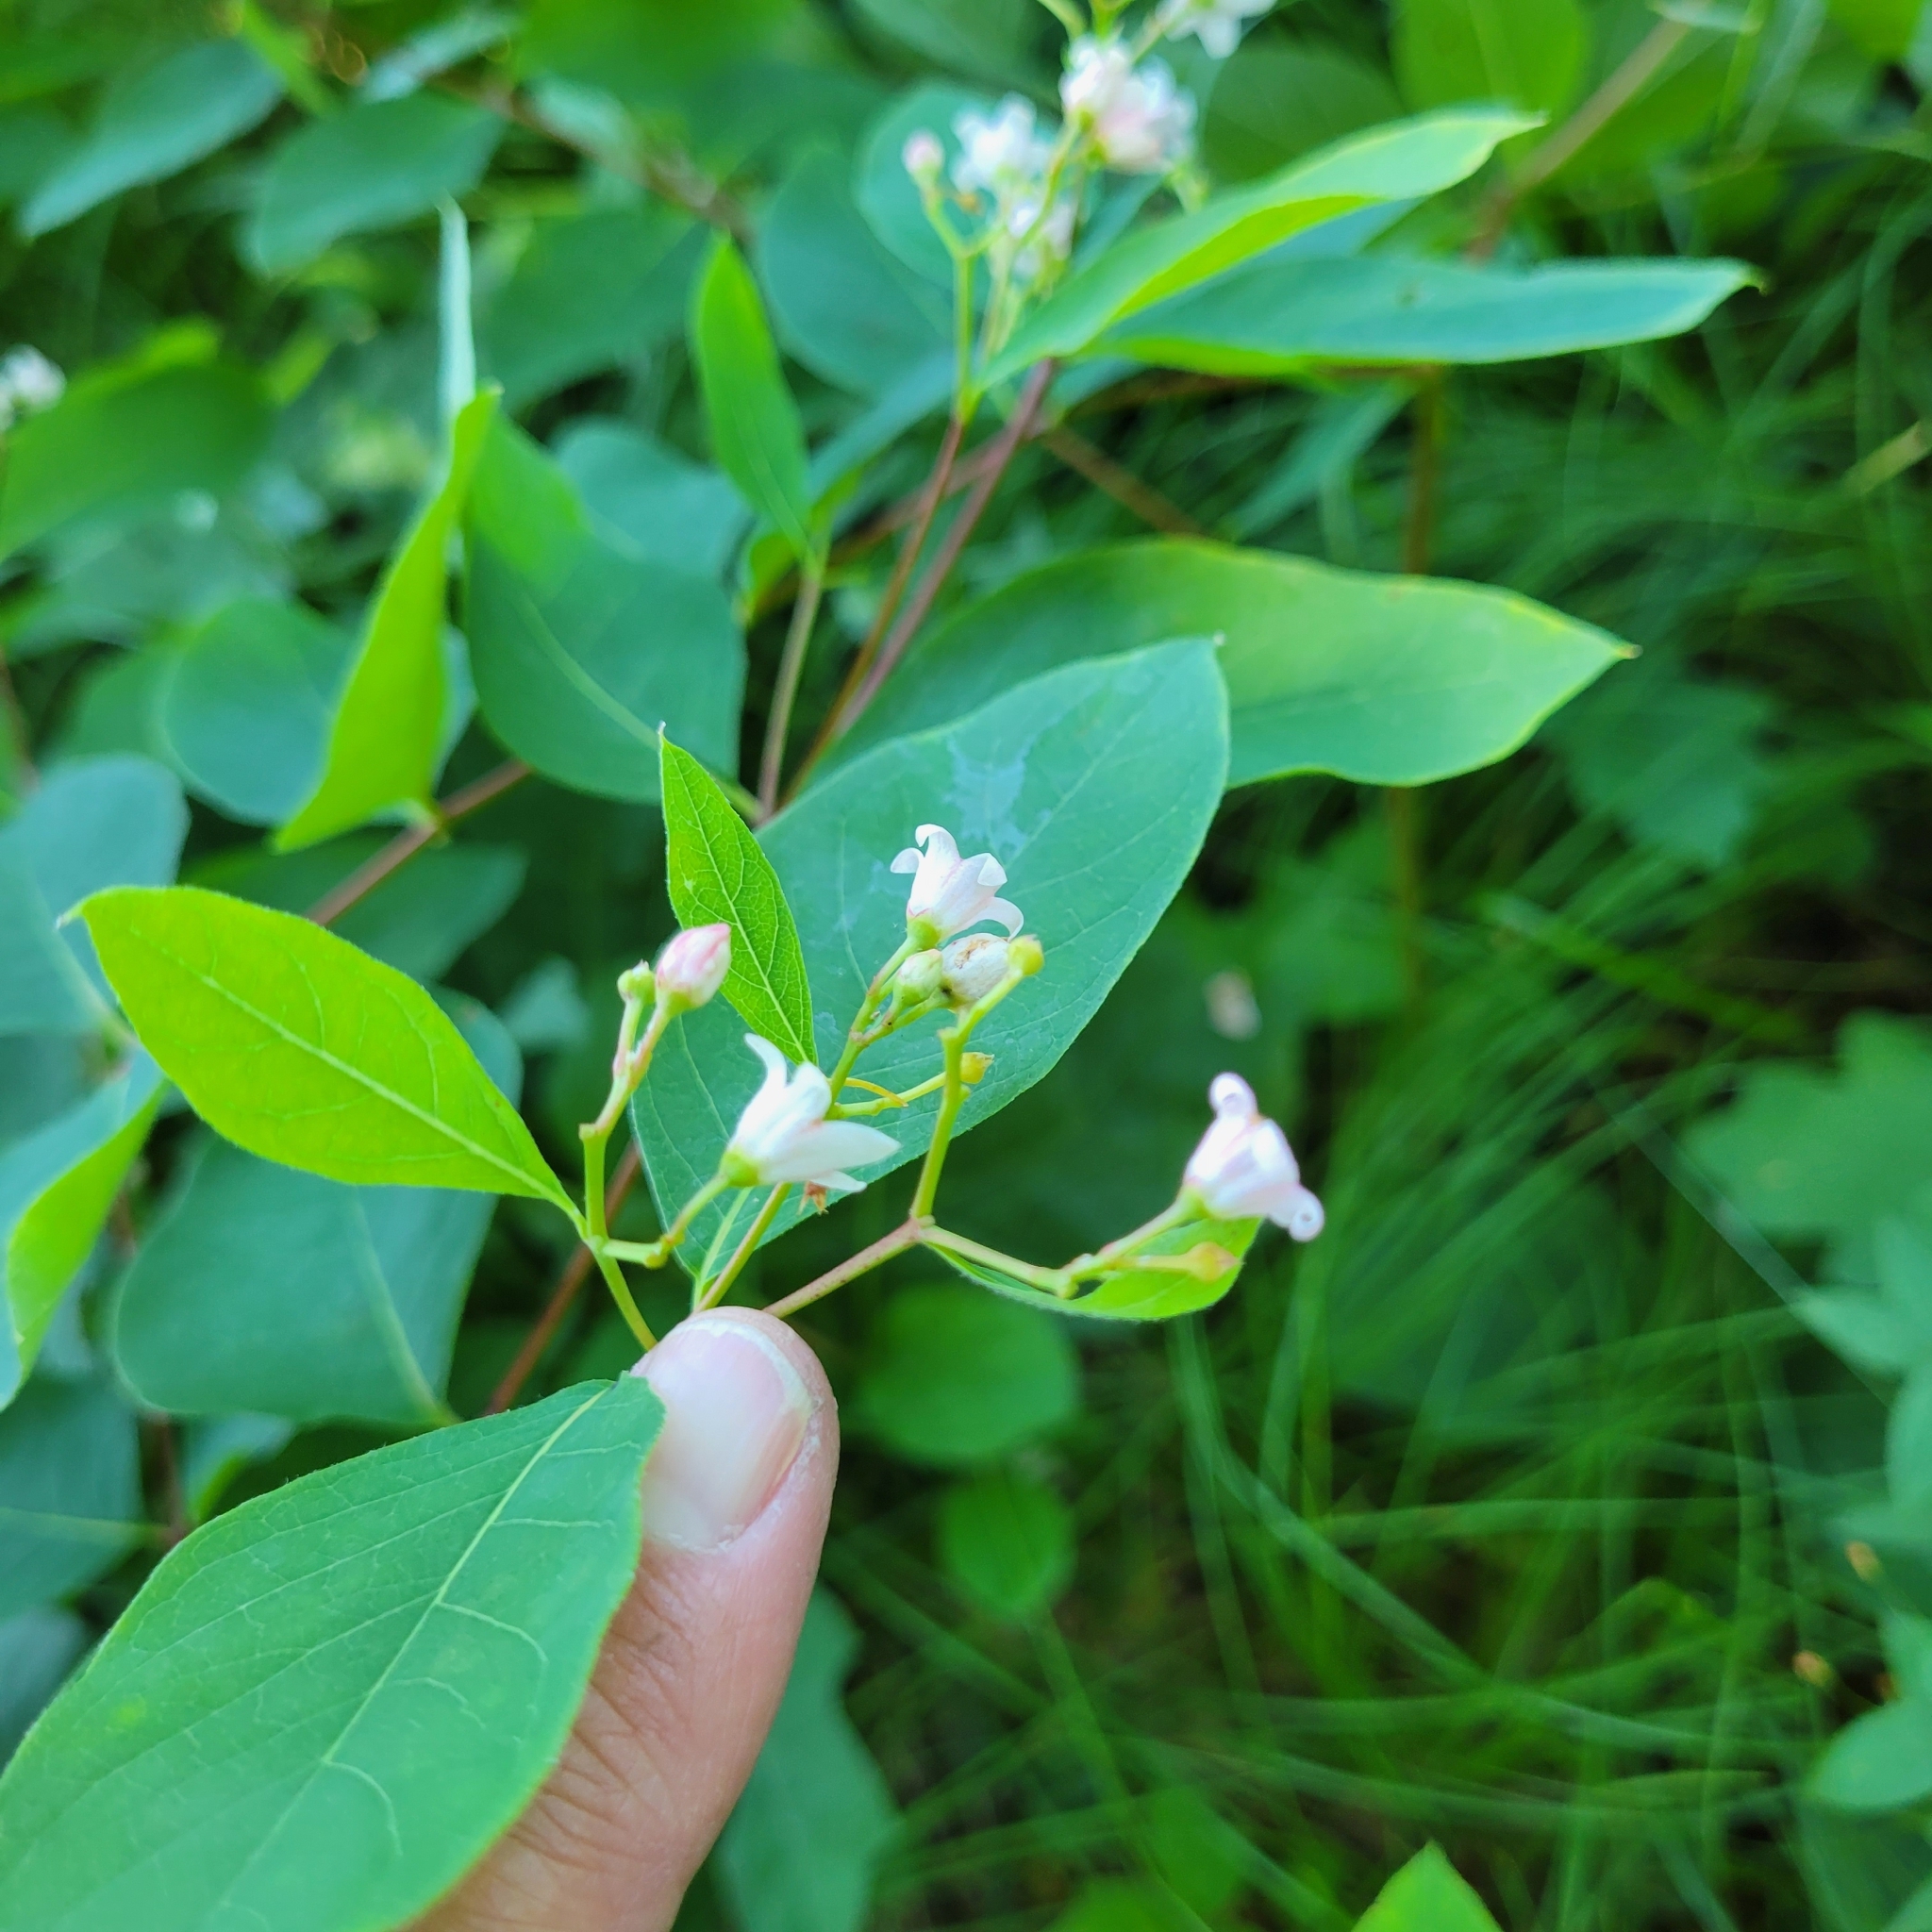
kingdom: Plantae
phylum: Tracheophyta
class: Magnoliopsida
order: Gentianales
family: Apocynaceae
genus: Apocynum
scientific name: Apocynum androsaemifolium
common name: Spreading dogbane
